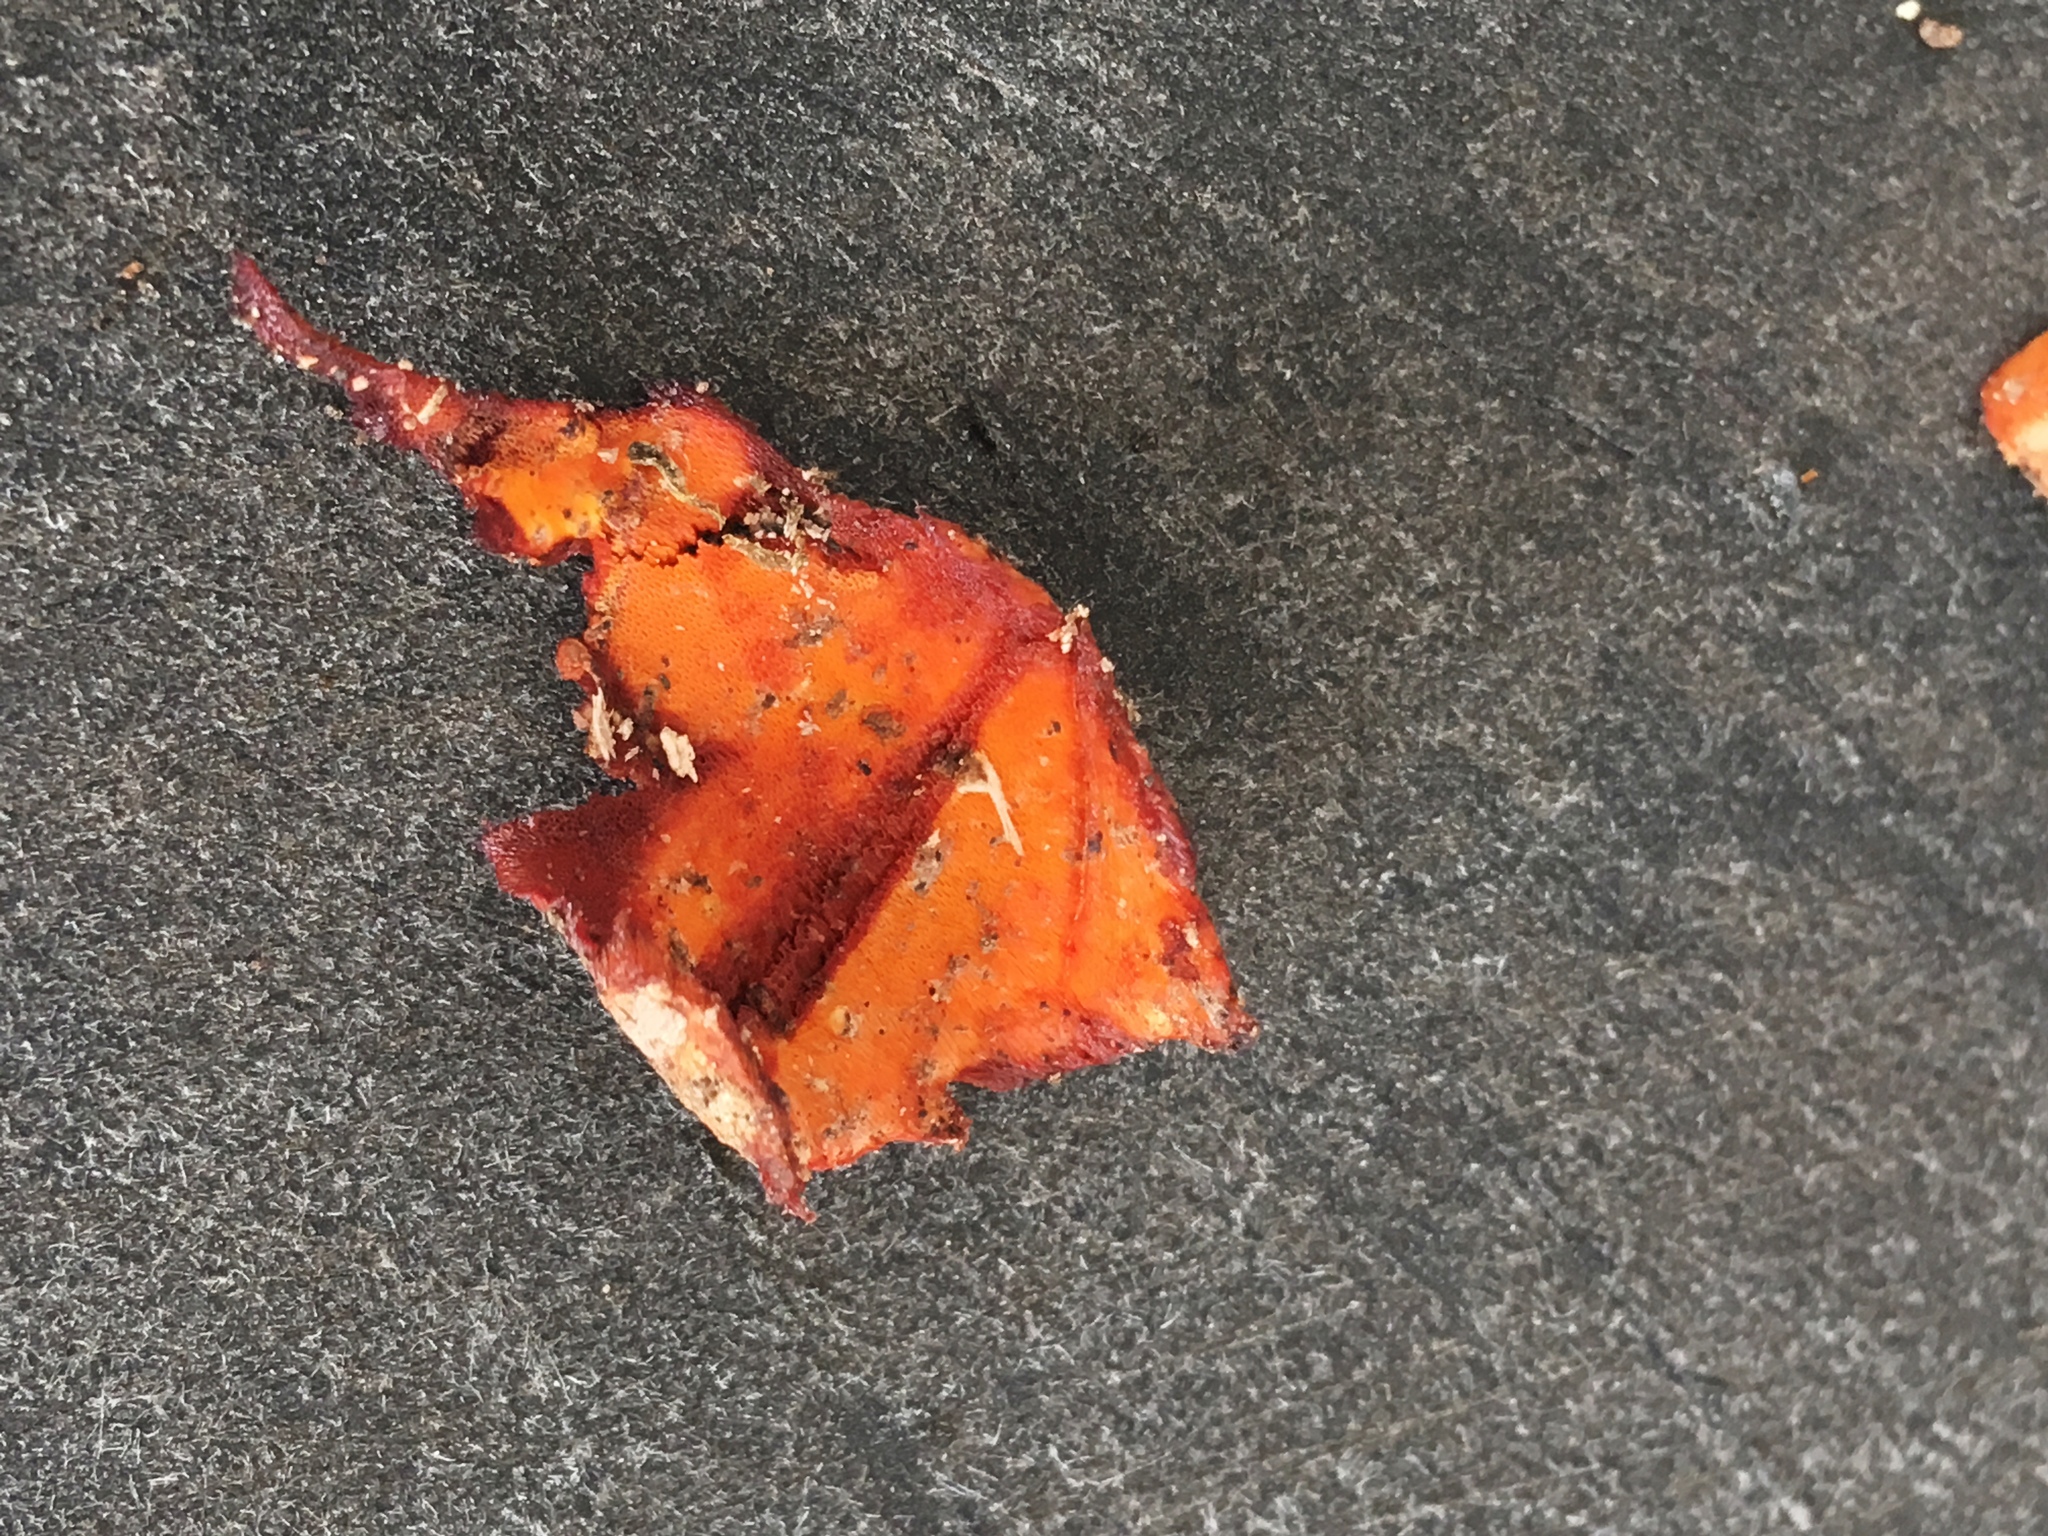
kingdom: Fungi
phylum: Basidiomycota
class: Agaricomycetes
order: Polyporales
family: Irpicaceae
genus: Ceriporia
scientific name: Ceriporia spissa
